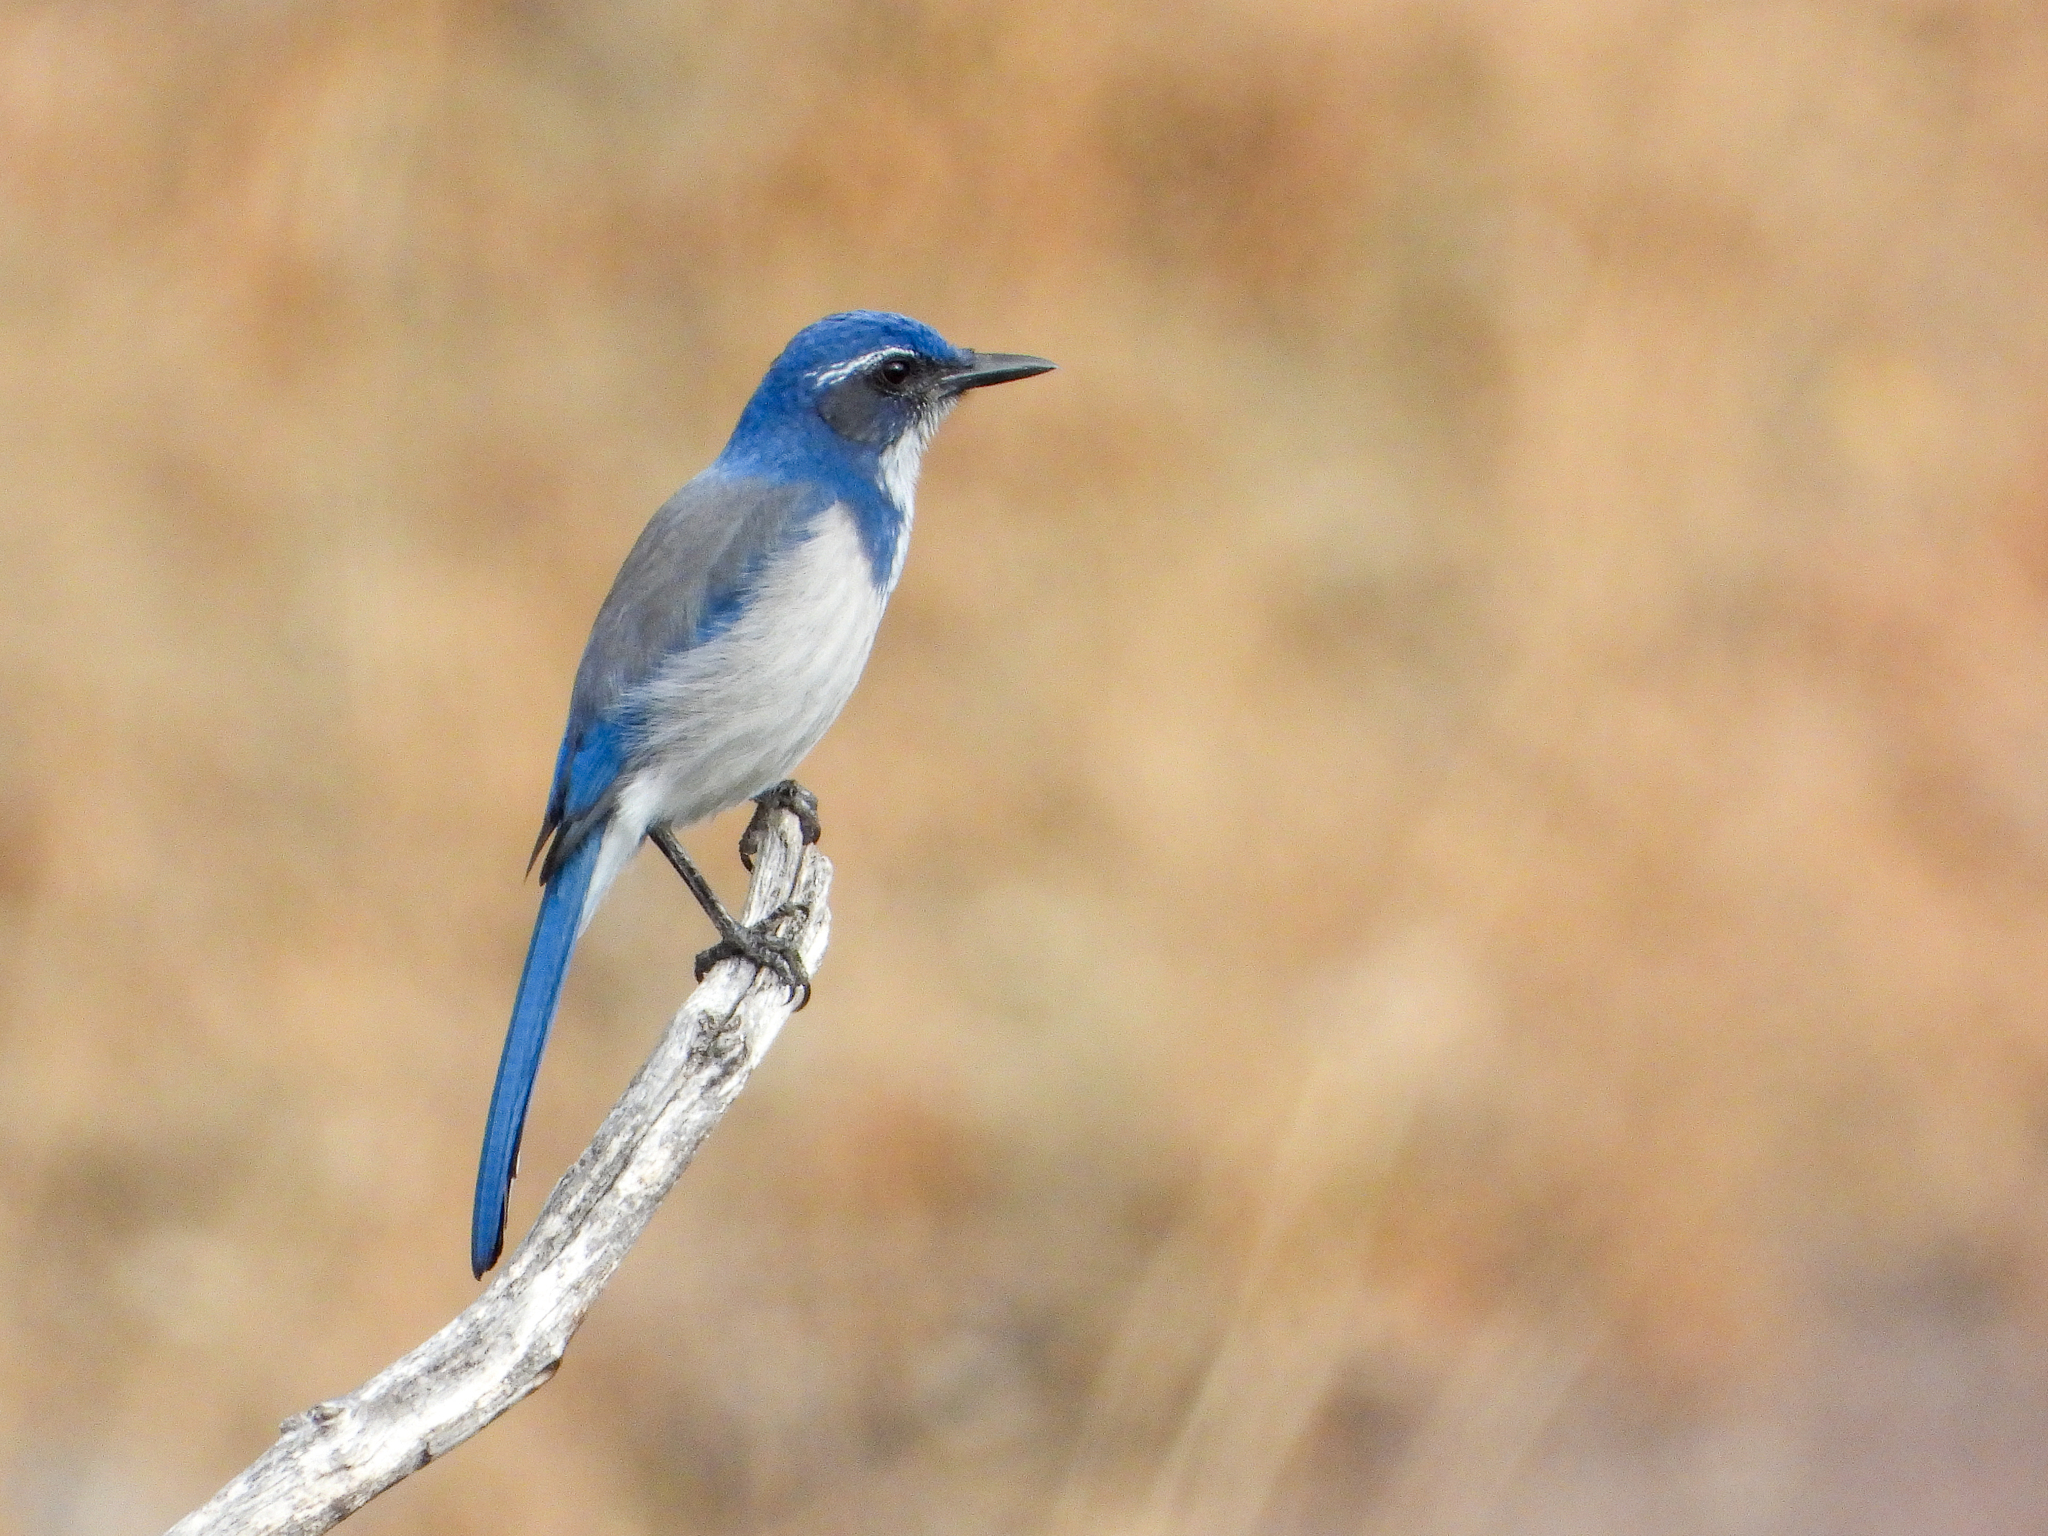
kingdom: Animalia
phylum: Chordata
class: Aves
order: Passeriformes
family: Corvidae
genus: Aphelocoma
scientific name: Aphelocoma californica
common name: California scrub-jay
